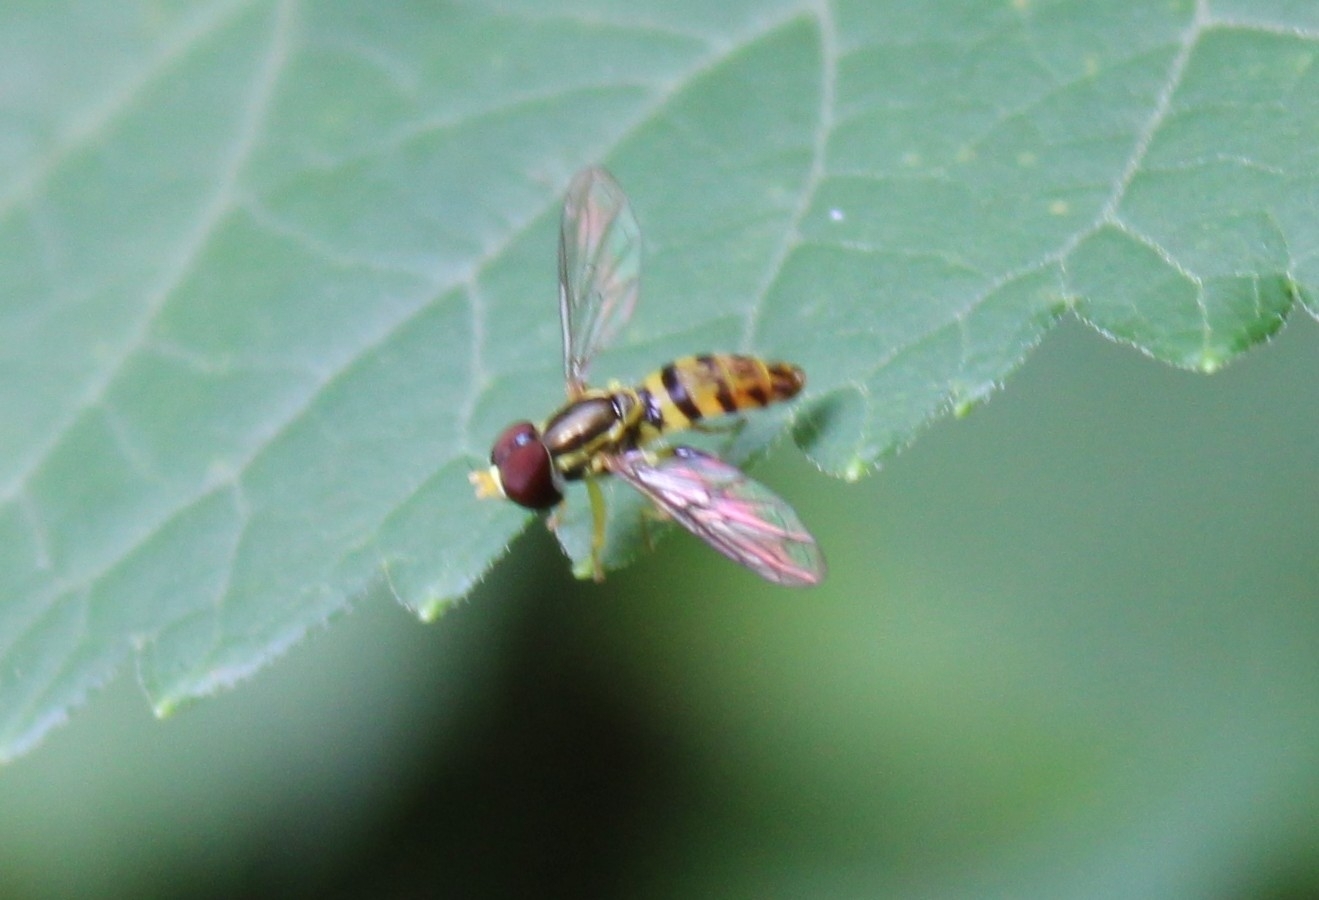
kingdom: Animalia
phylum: Arthropoda
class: Insecta
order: Diptera
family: Syrphidae
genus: Toxomerus
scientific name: Toxomerus geminatus
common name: Eastern calligrapher
